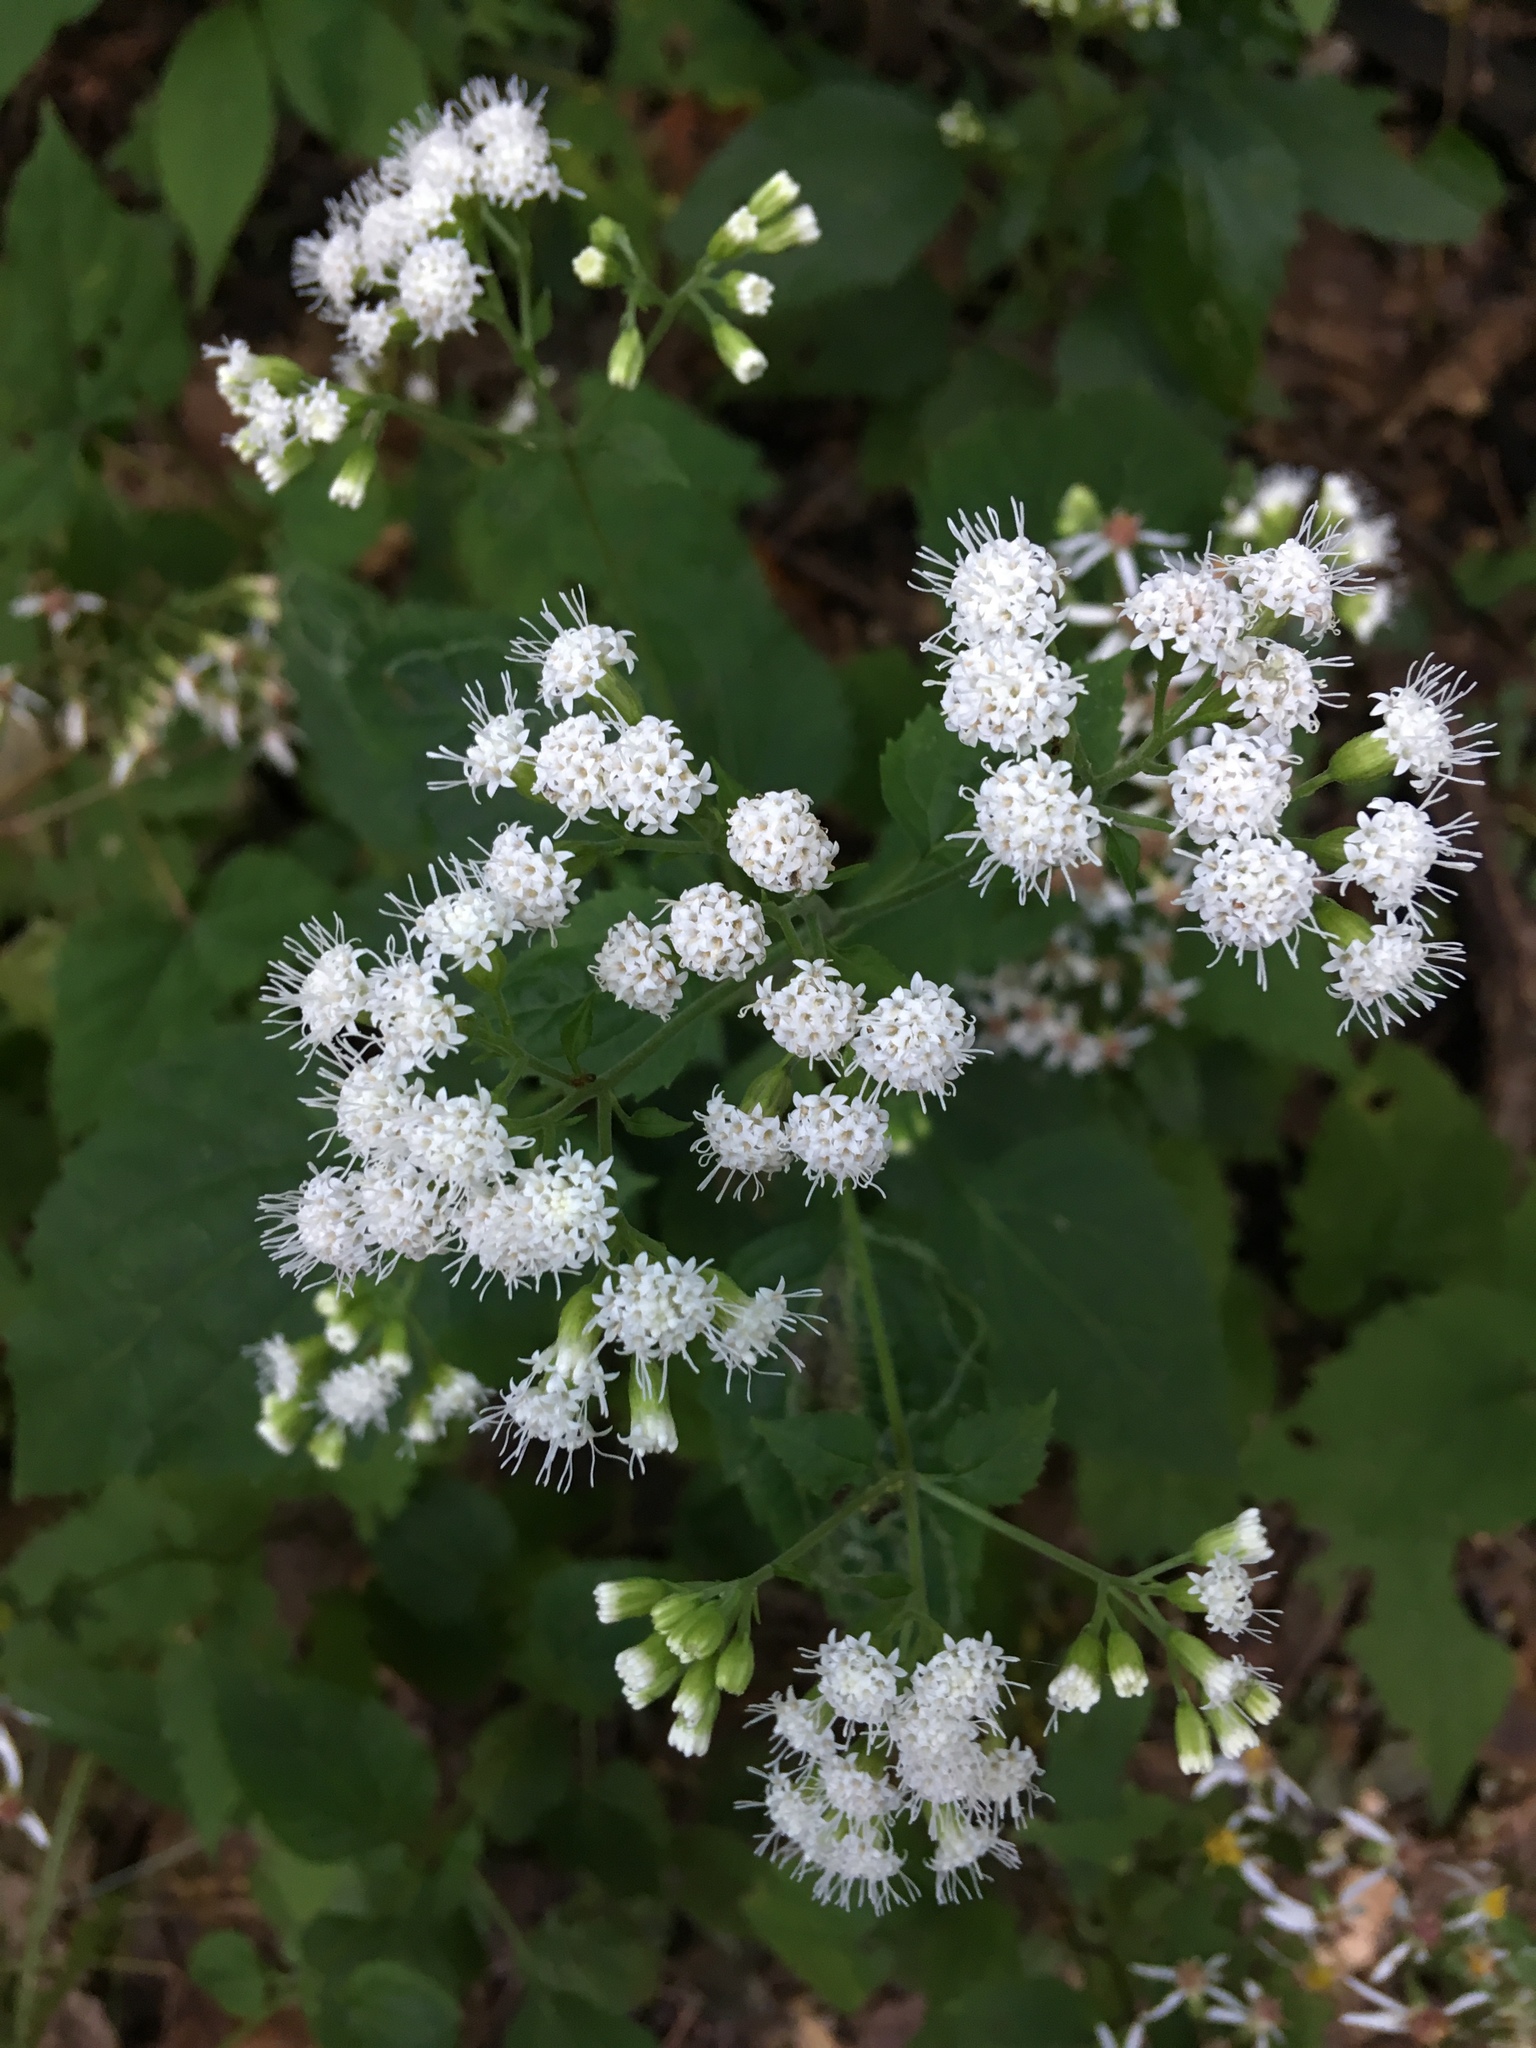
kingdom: Plantae
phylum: Tracheophyta
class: Magnoliopsida
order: Asterales
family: Asteraceae
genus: Ageratina
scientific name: Ageratina altissima
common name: White snakeroot
